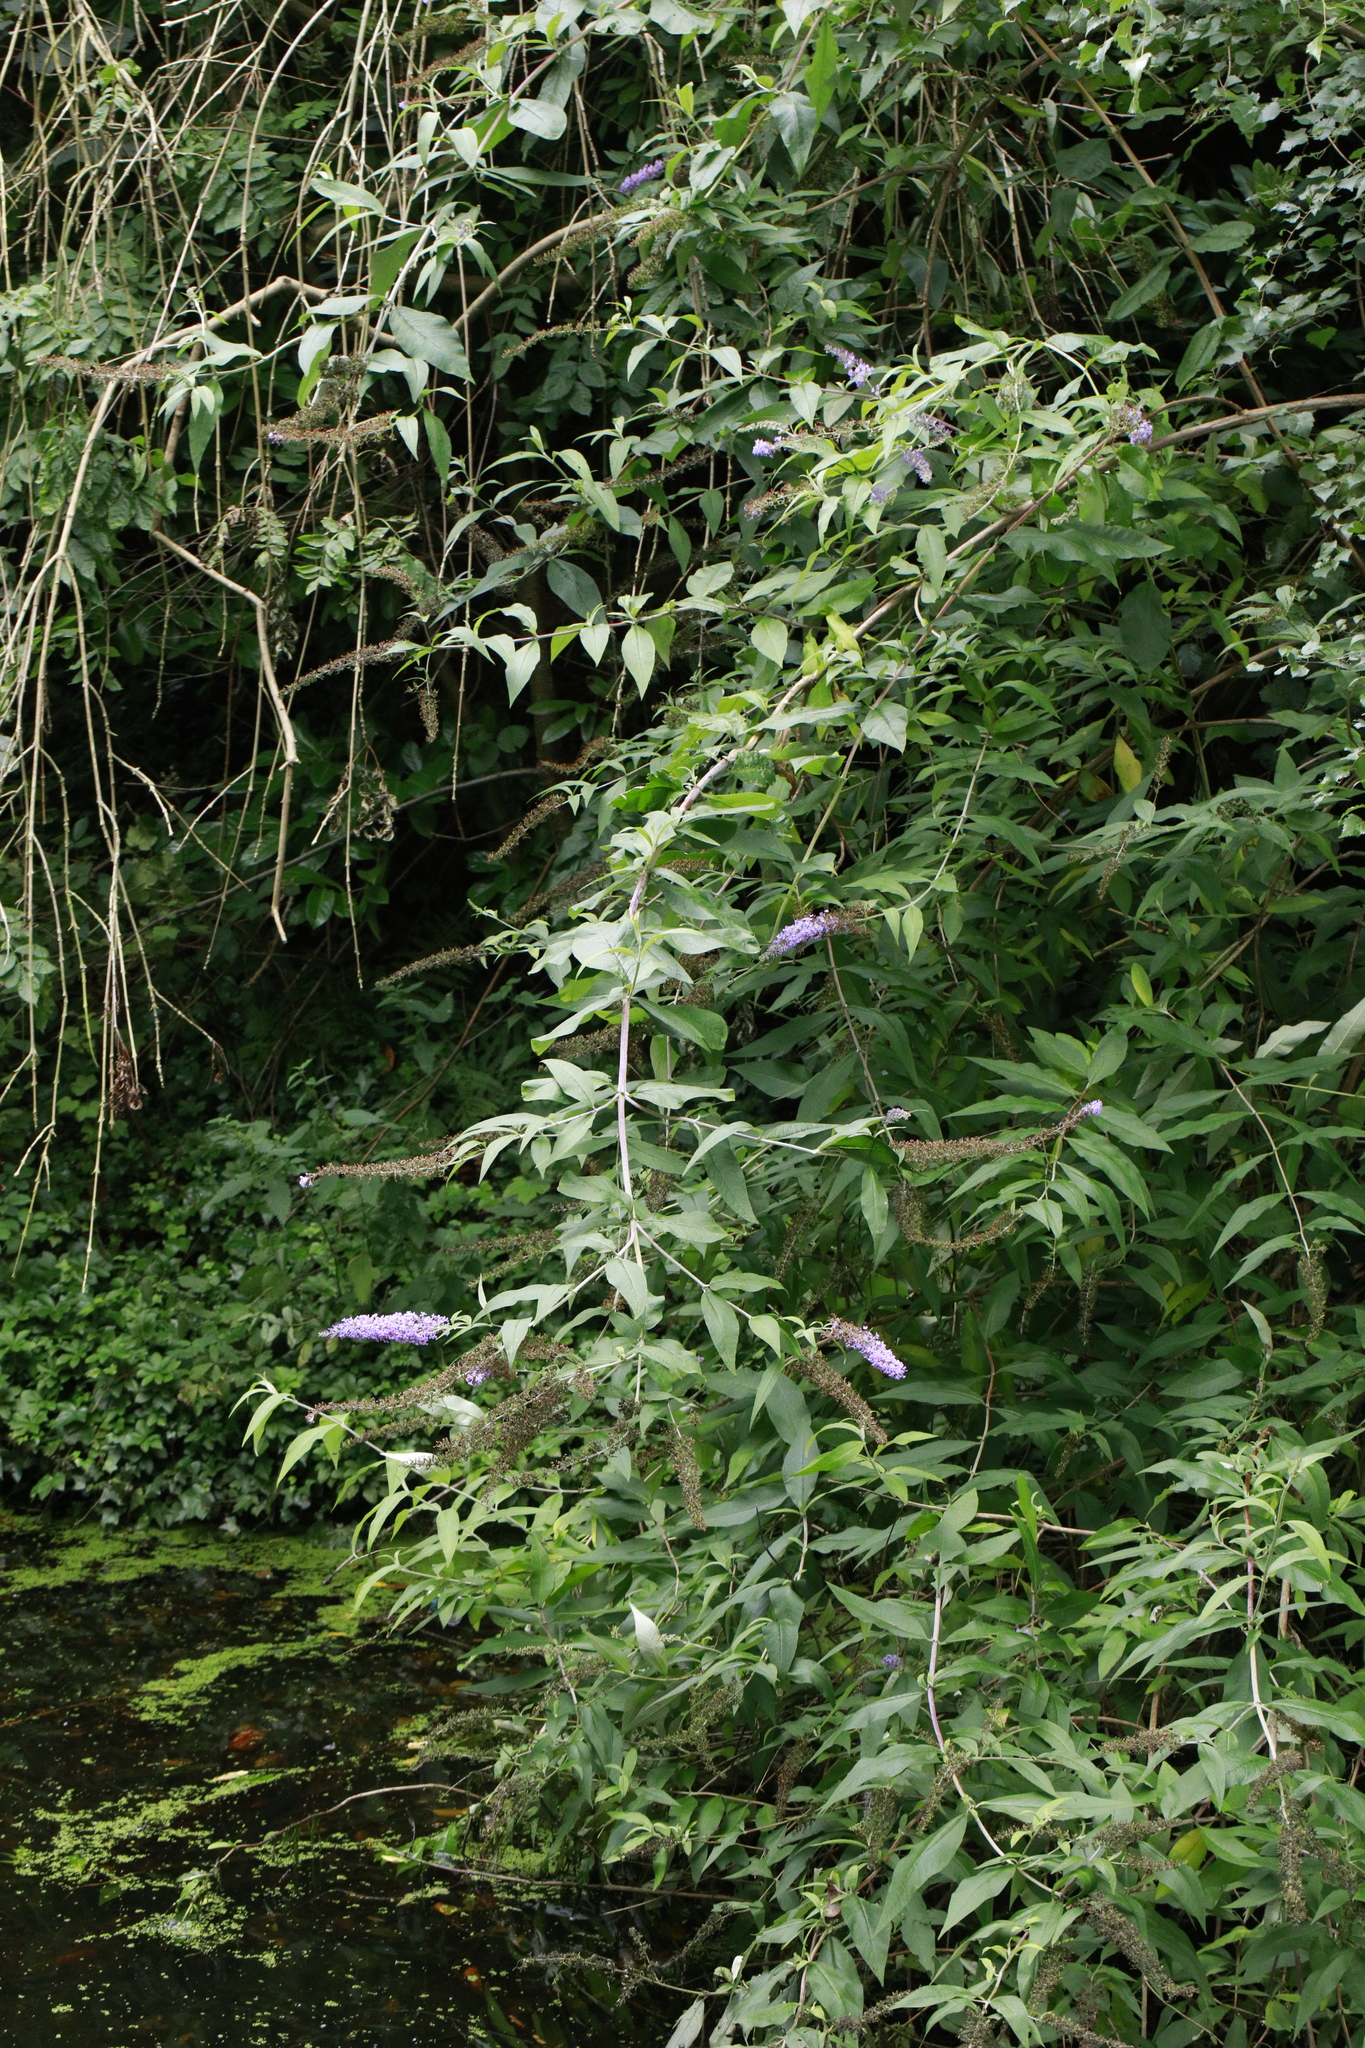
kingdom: Plantae
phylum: Tracheophyta
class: Magnoliopsida
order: Lamiales
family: Scrophulariaceae
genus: Buddleja
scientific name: Buddleja davidii
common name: Butterfly-bush
